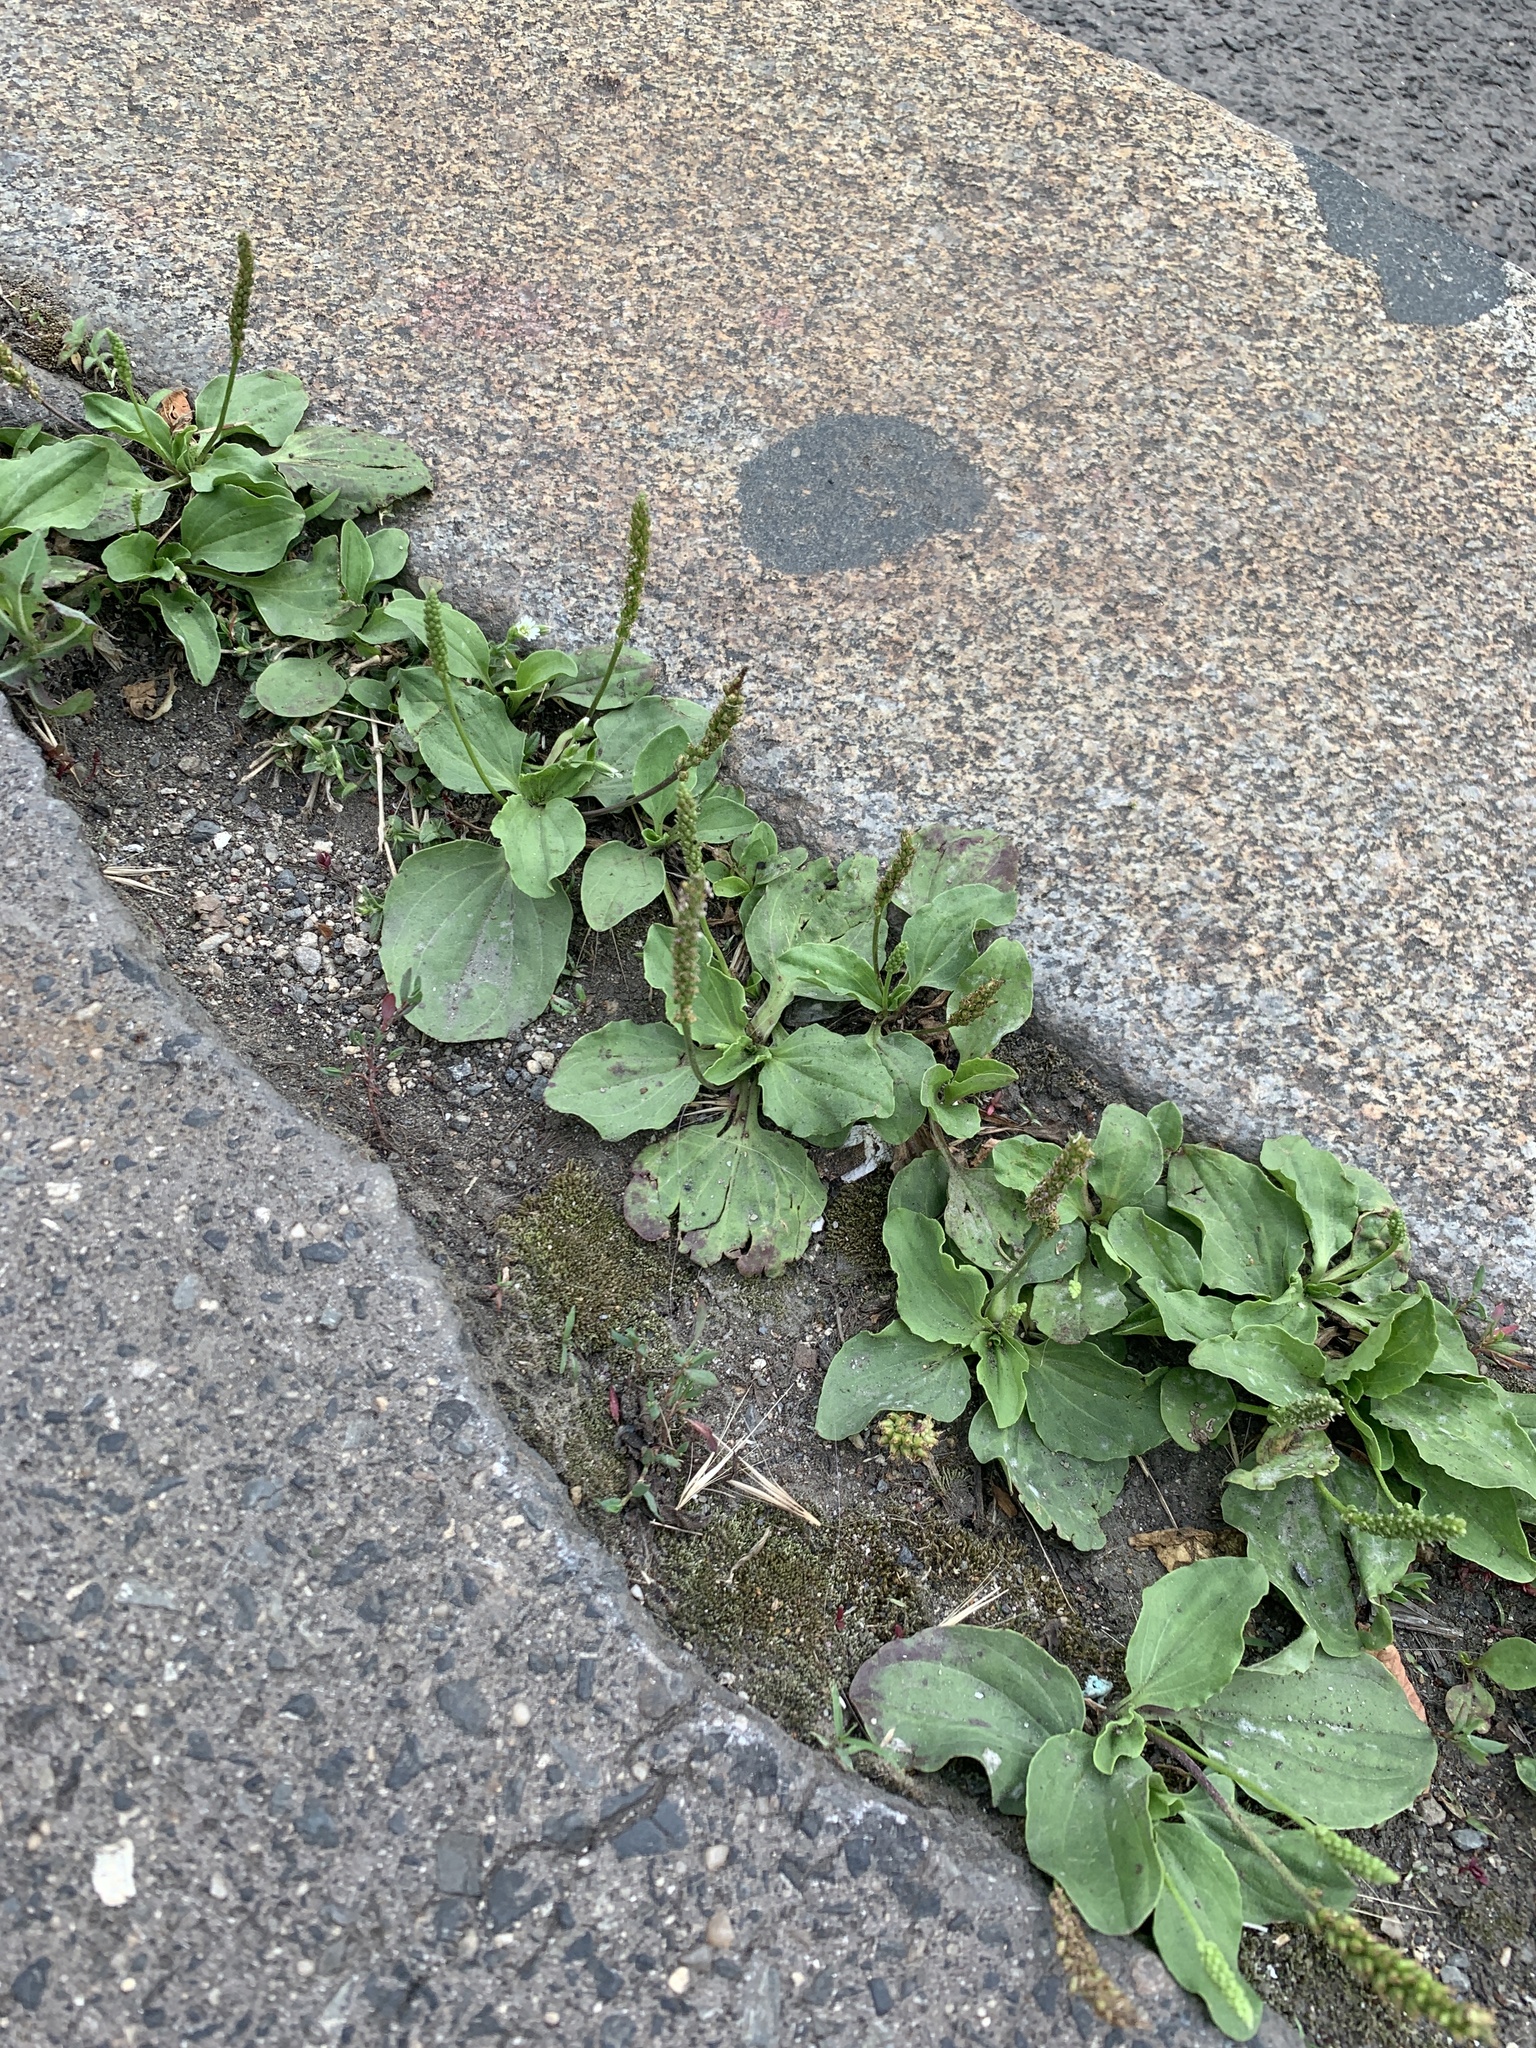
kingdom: Plantae
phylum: Tracheophyta
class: Magnoliopsida
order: Lamiales
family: Plantaginaceae
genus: Plantago
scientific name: Plantago major
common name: Common plantain
